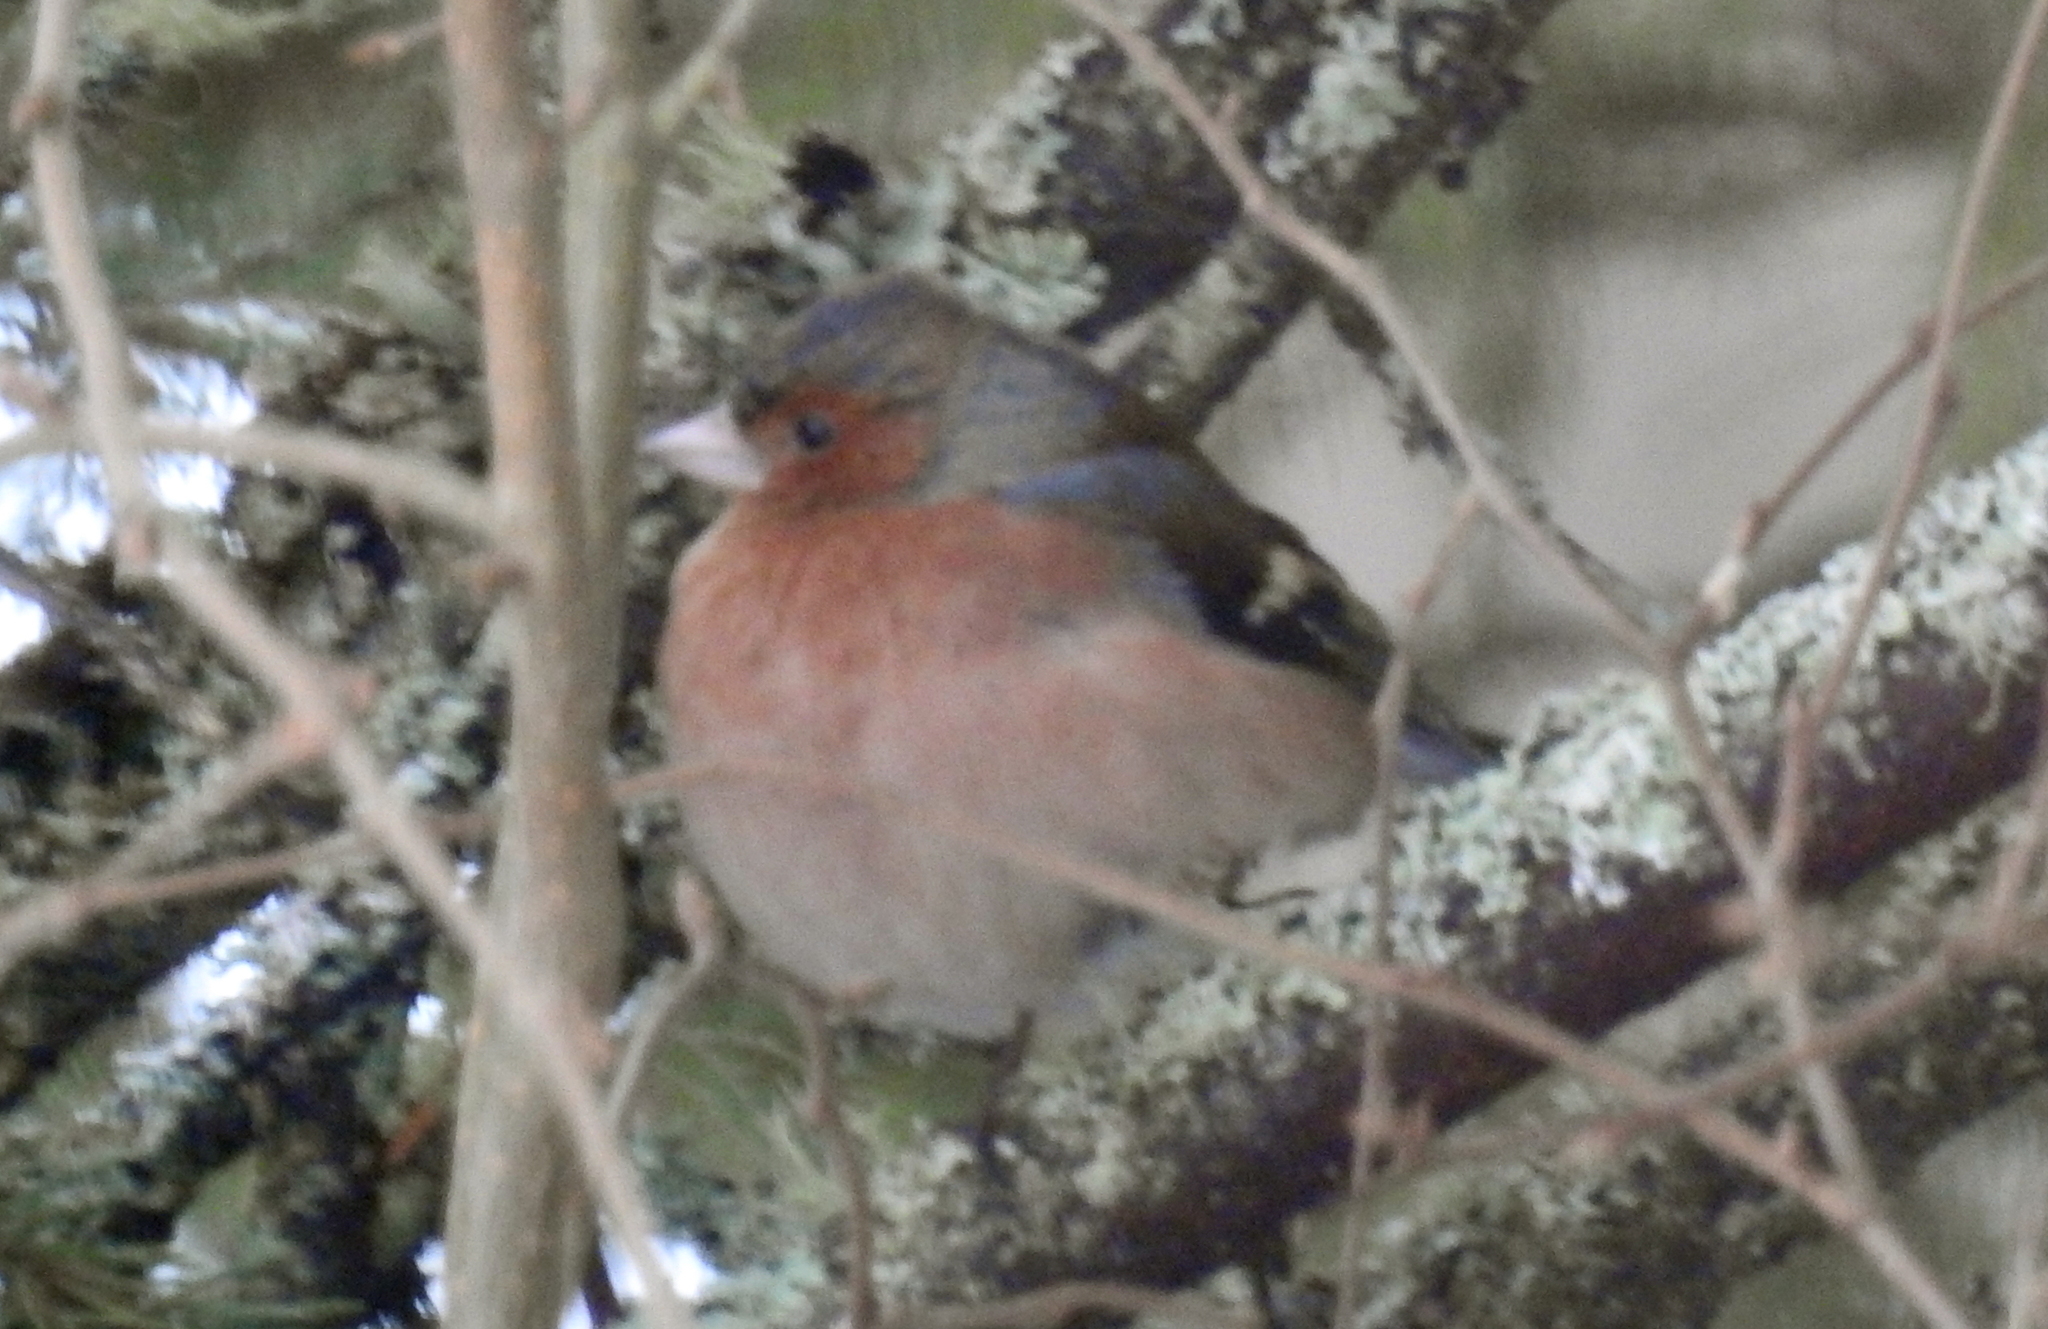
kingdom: Animalia
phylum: Chordata
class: Aves
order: Passeriformes
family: Fringillidae
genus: Fringilla
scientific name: Fringilla coelebs
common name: Common chaffinch
